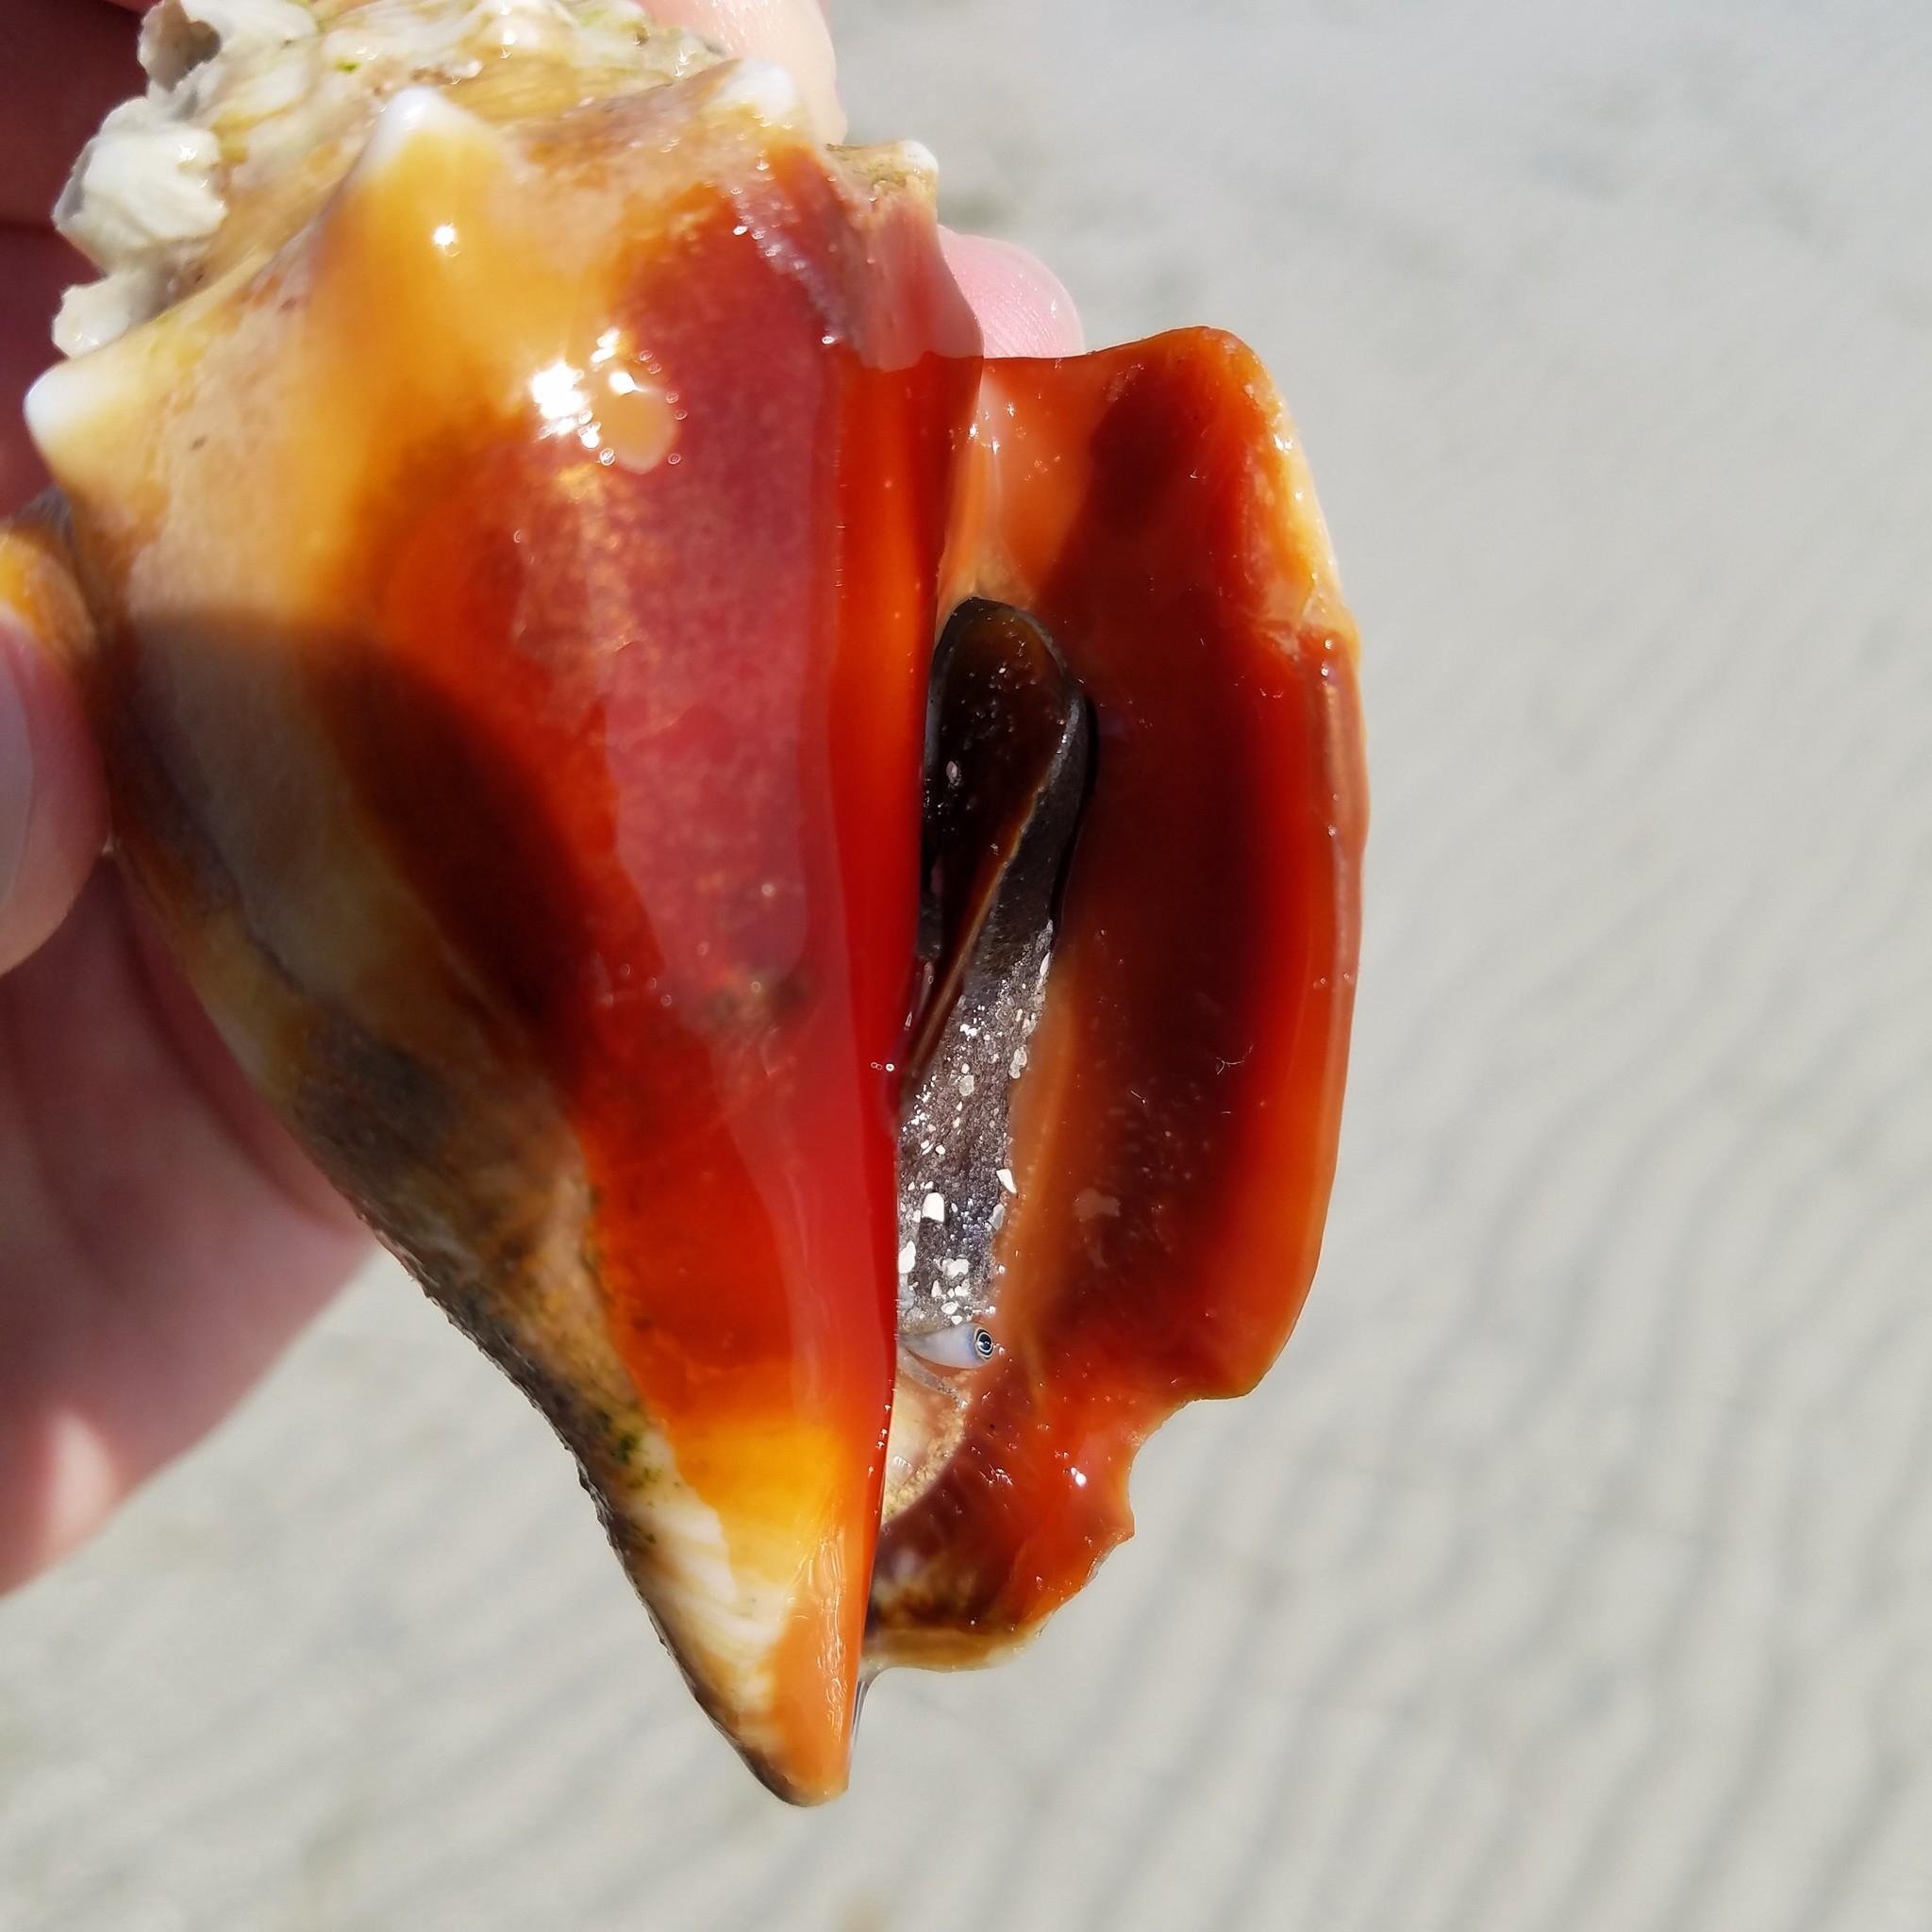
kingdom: Animalia
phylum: Mollusca
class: Gastropoda
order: Littorinimorpha
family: Strombidae
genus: Strombus
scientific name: Strombus alatus
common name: Florida fighting conch
